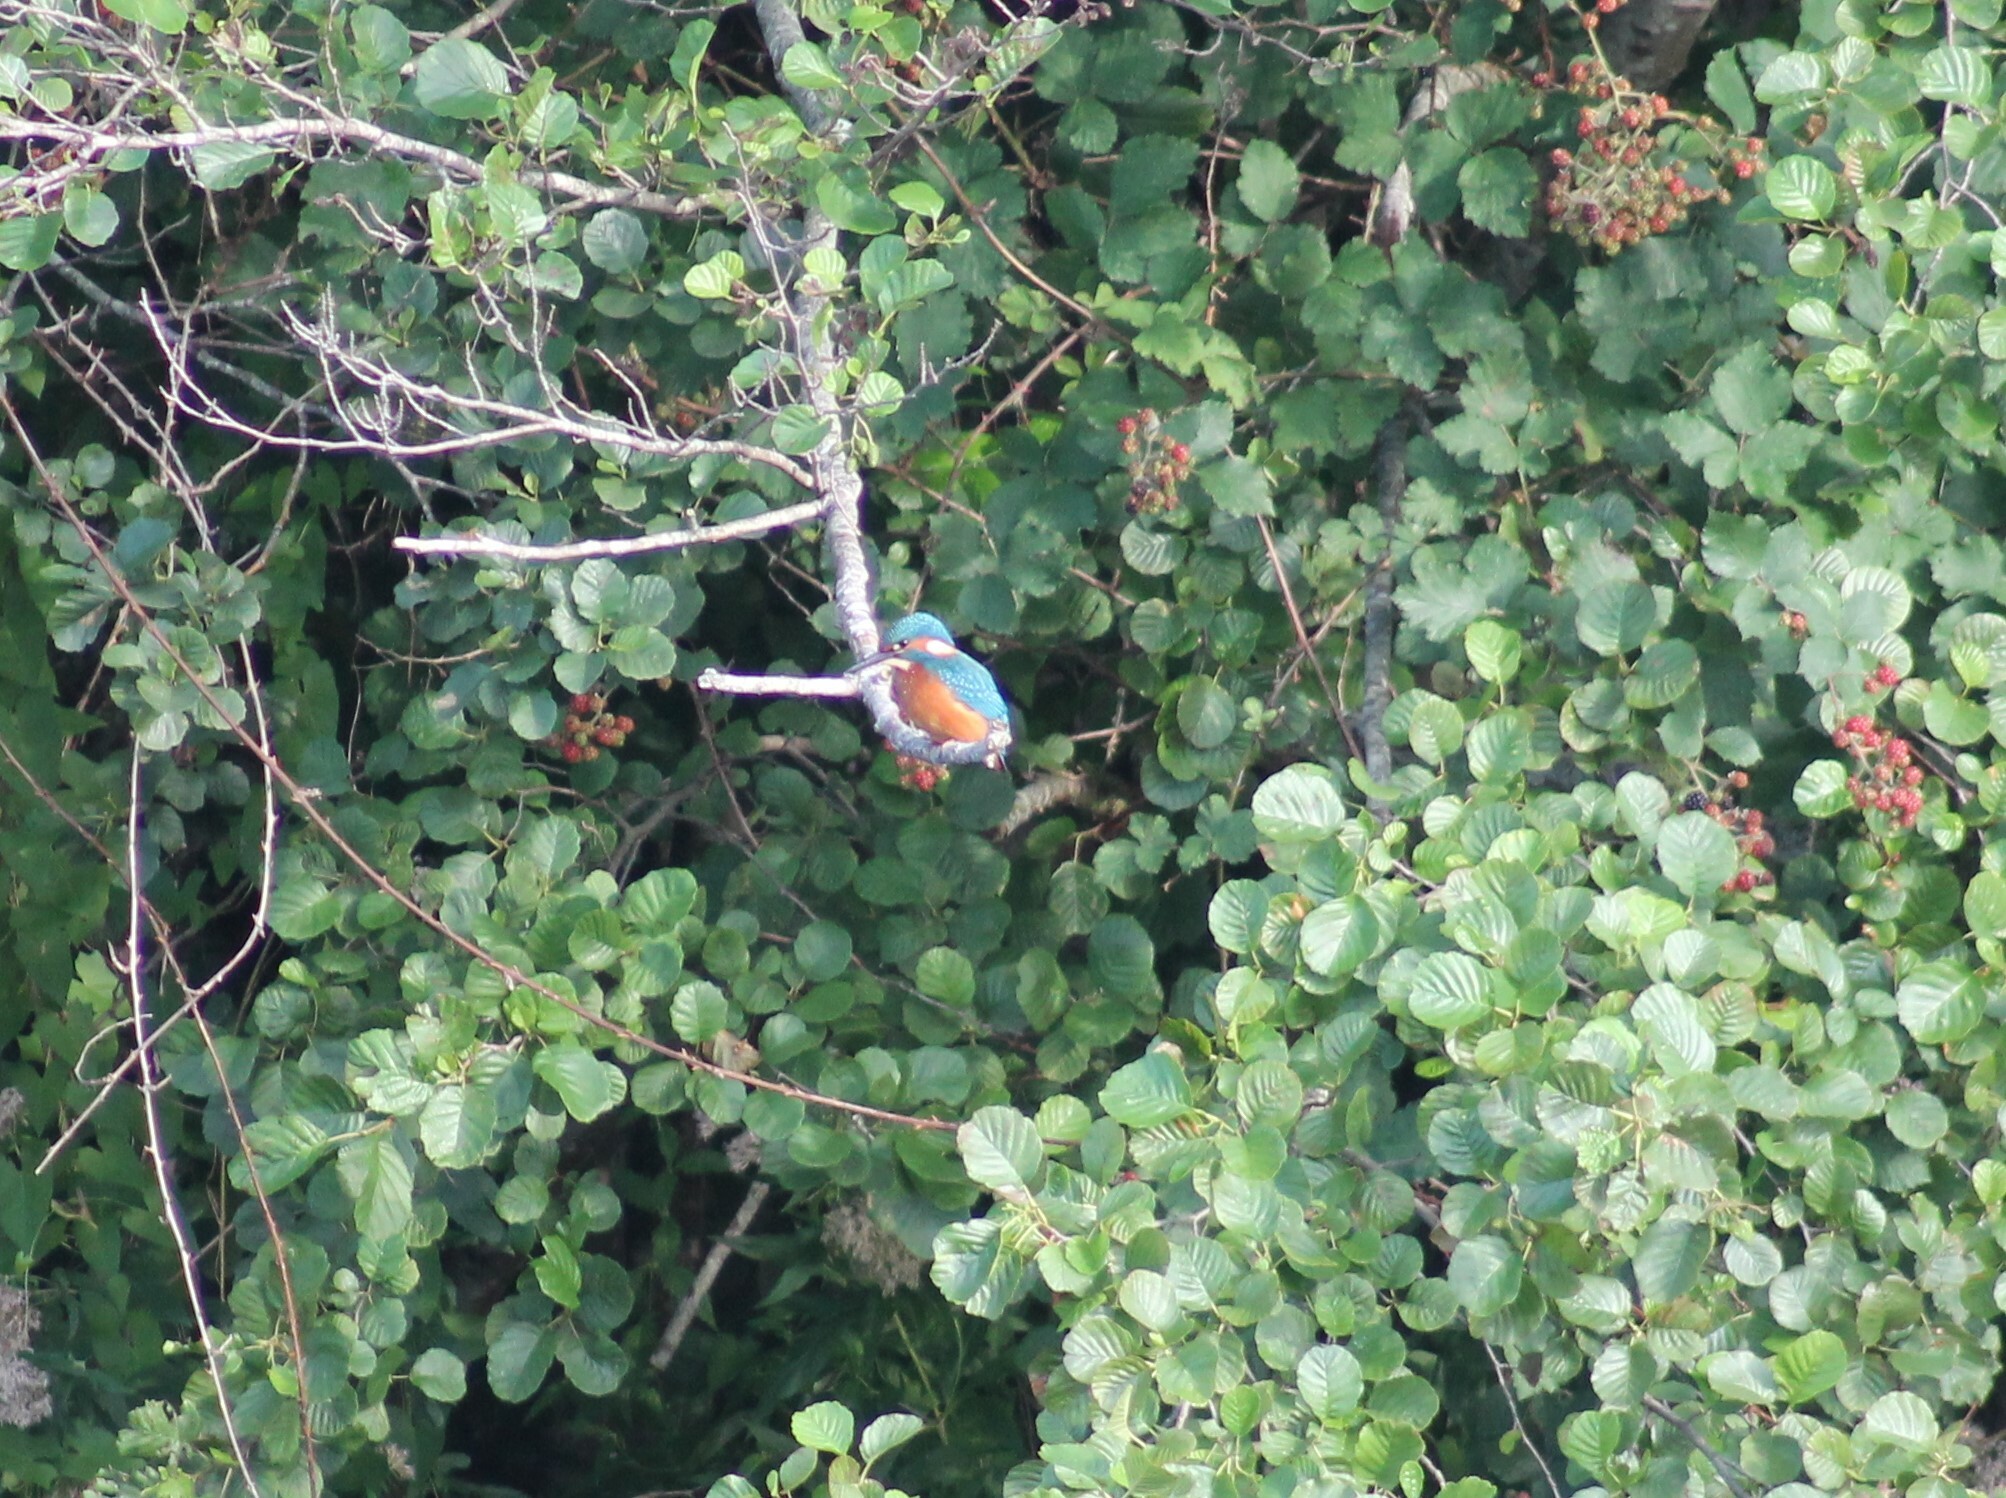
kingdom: Animalia
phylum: Chordata
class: Aves
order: Coraciiformes
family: Alcedinidae
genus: Alcedo
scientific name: Alcedo atthis
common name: Common kingfisher
